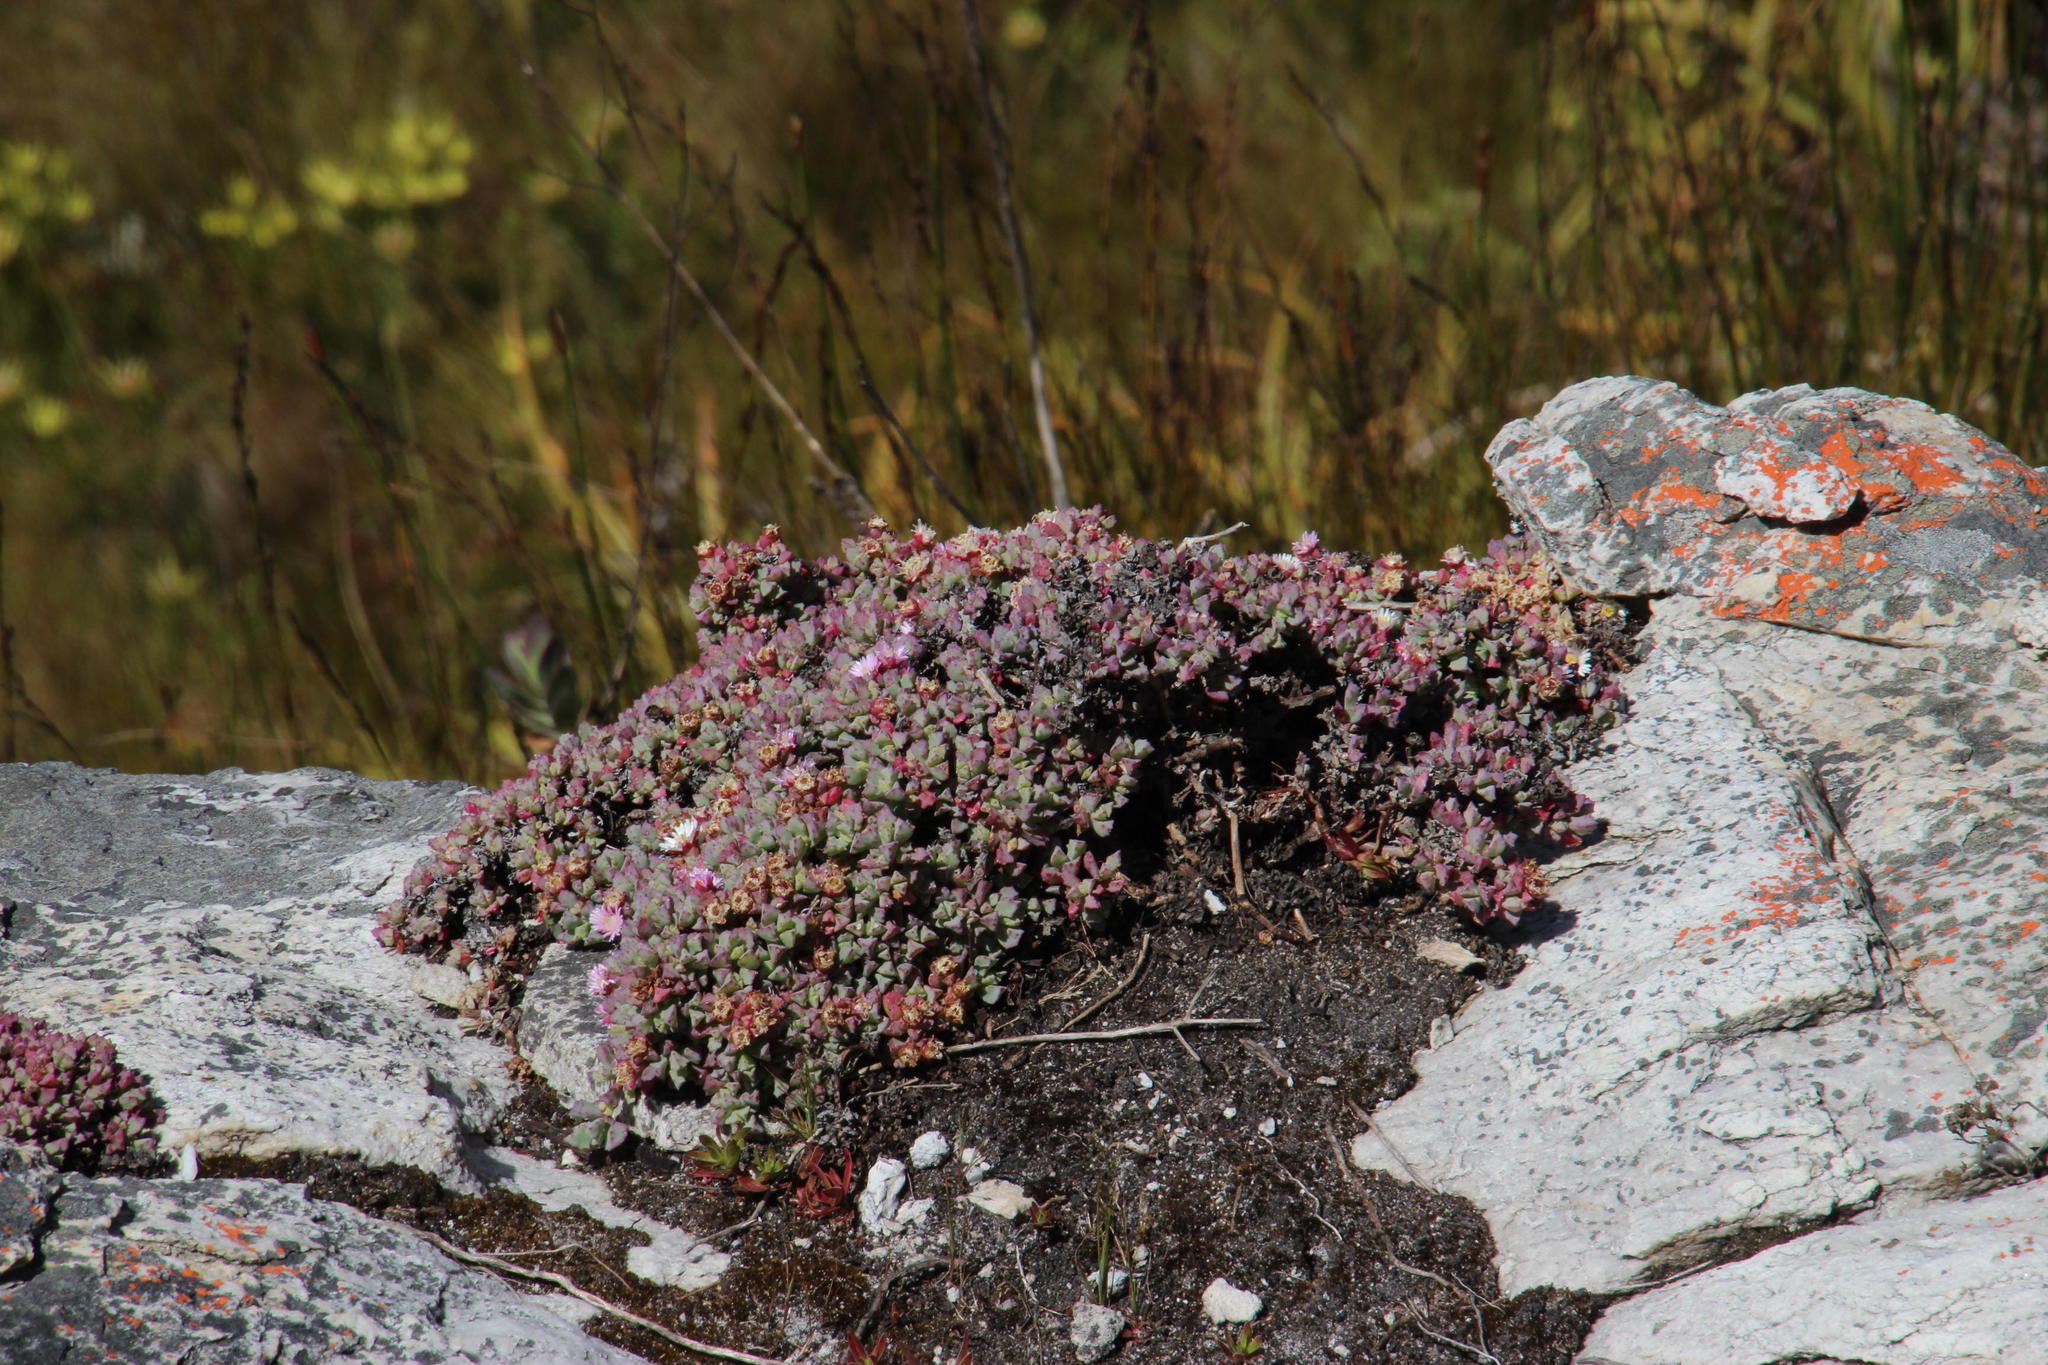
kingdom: Plantae
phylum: Tracheophyta
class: Magnoliopsida
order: Caryophyllales
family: Aizoaceae
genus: Oscularia
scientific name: Oscularia deltoides
